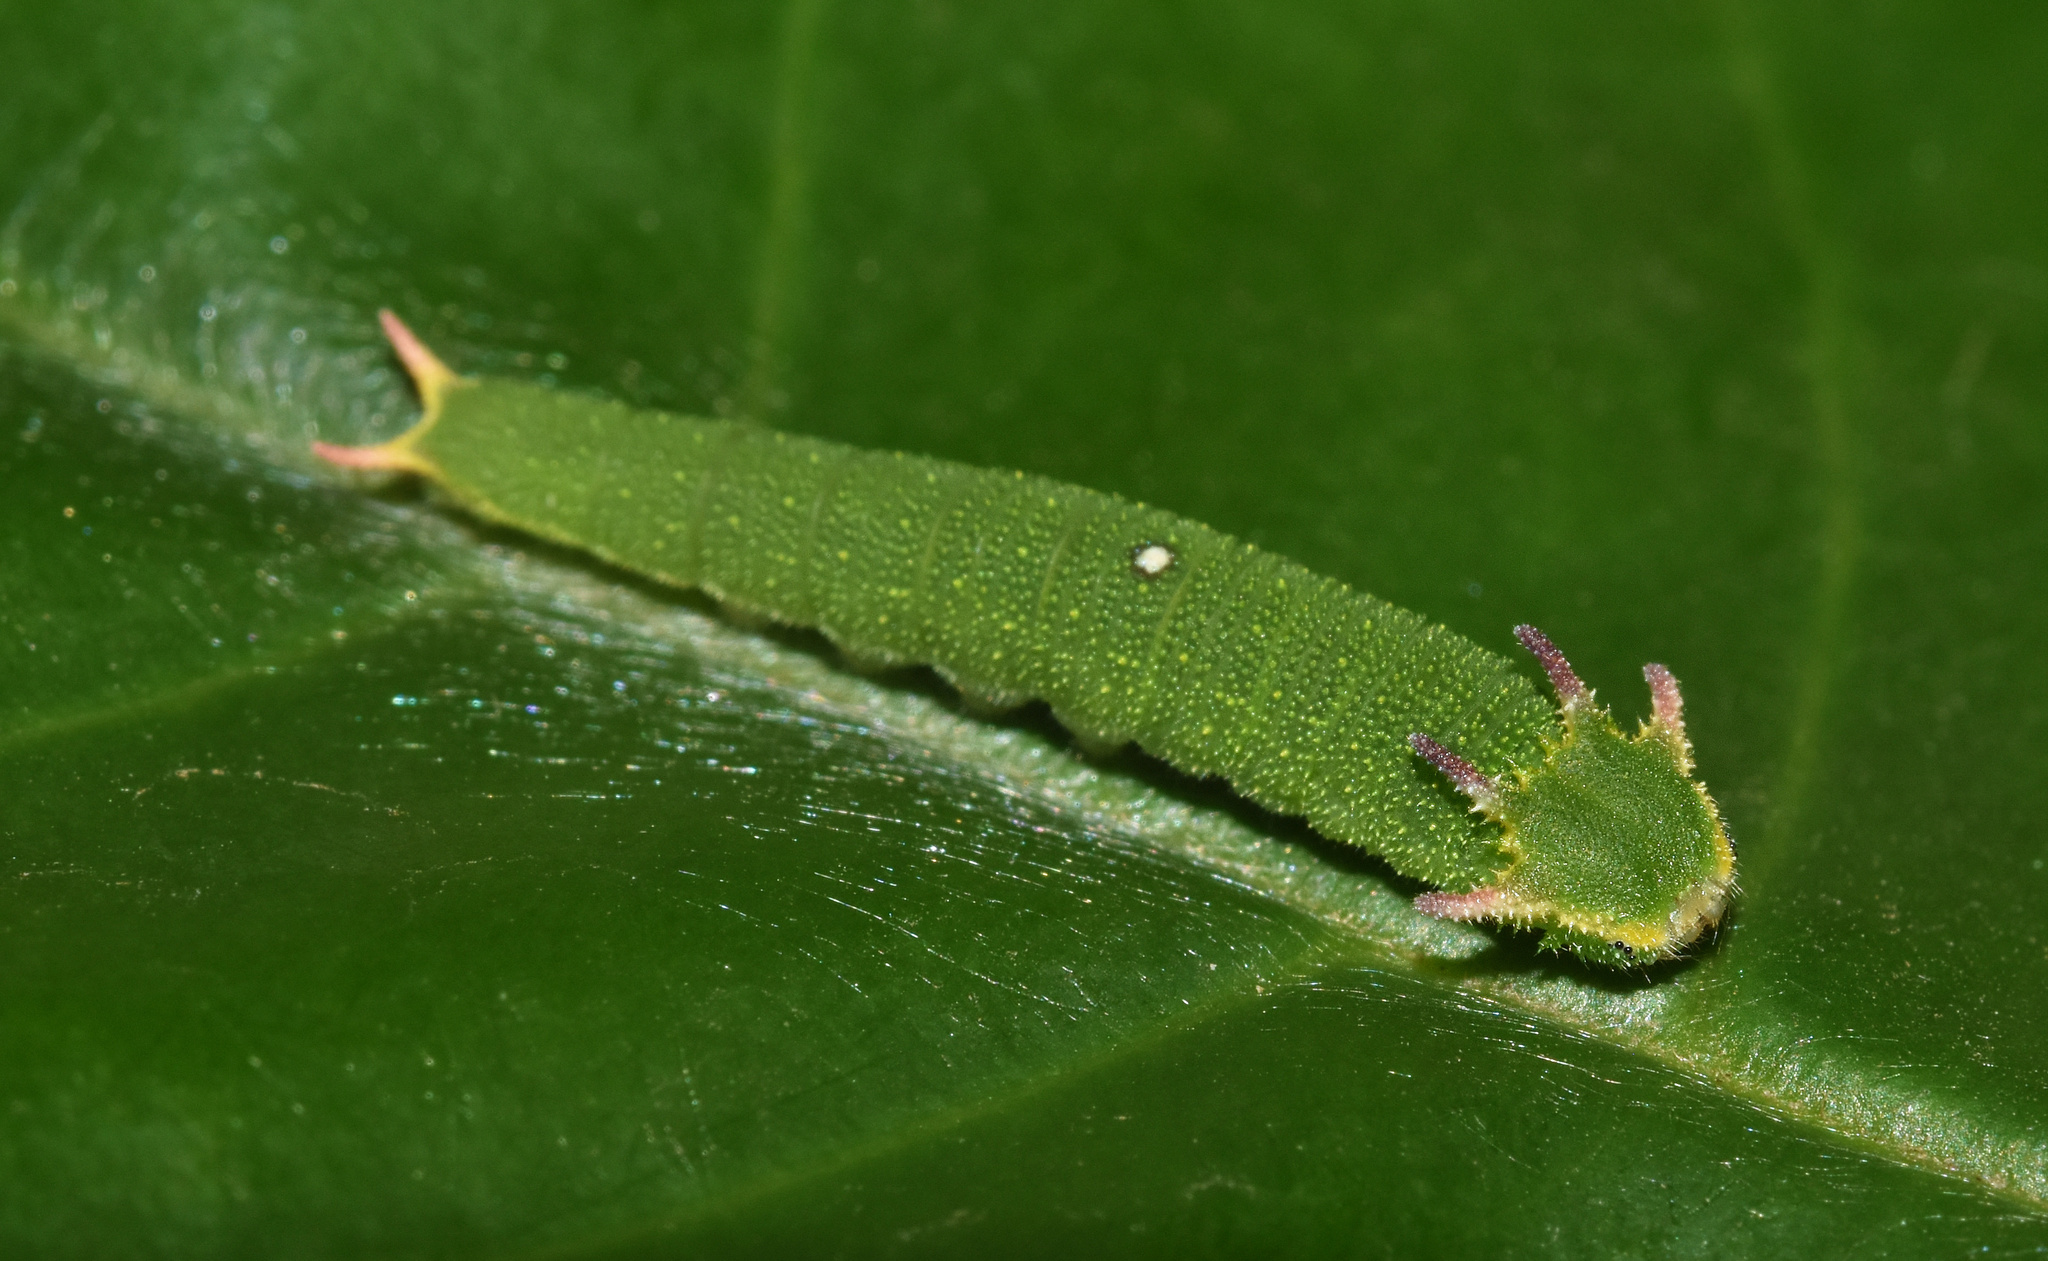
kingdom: Animalia
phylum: Arthropoda
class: Insecta
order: Lepidoptera
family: Nymphalidae
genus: Charaxes
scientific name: Charaxes brutus
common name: White-barred charaxes
